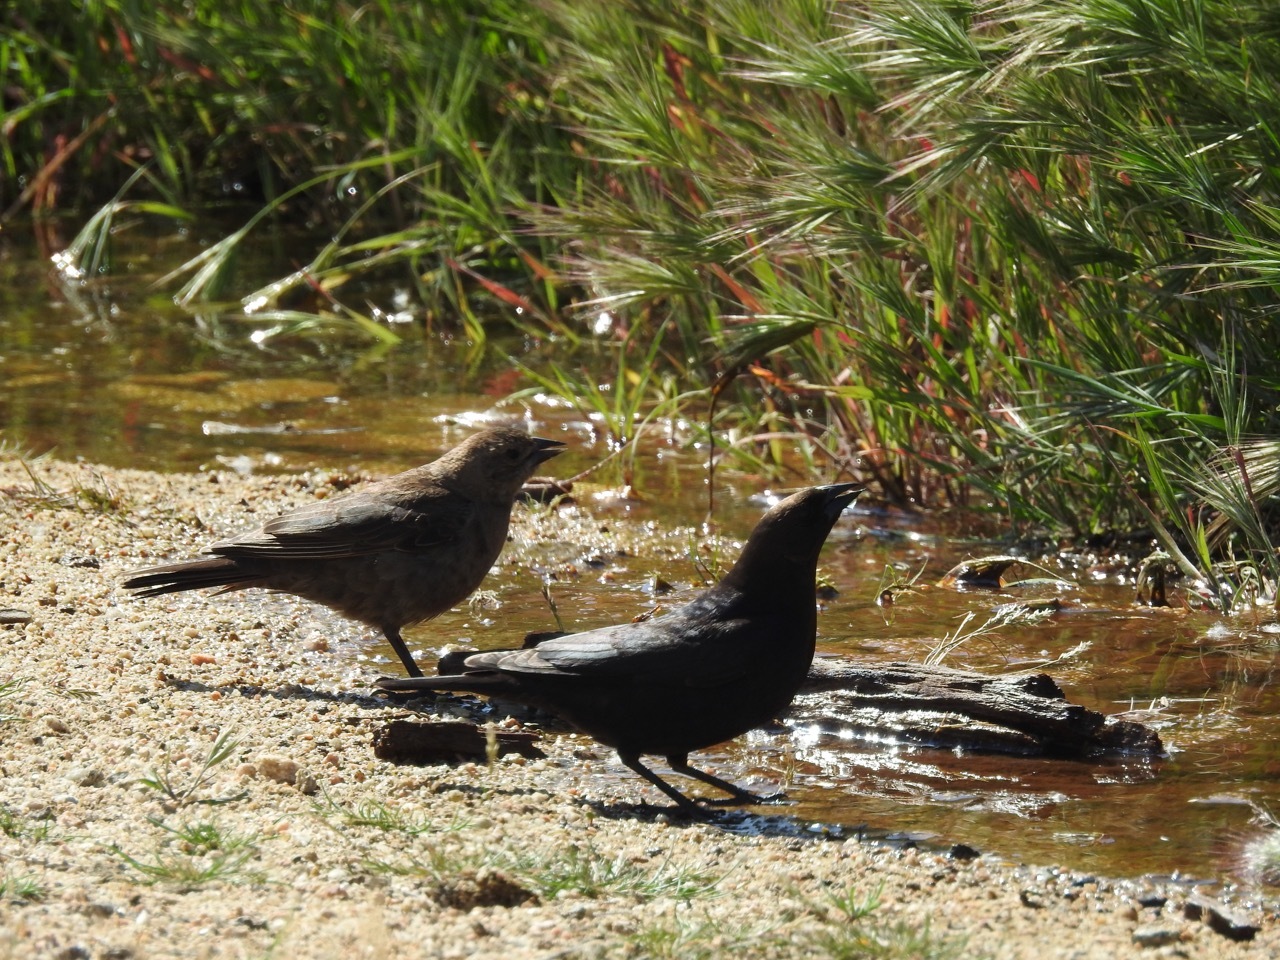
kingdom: Animalia
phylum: Chordata
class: Aves
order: Passeriformes
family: Icteridae
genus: Molothrus
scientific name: Molothrus ater
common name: Brown-headed cowbird
